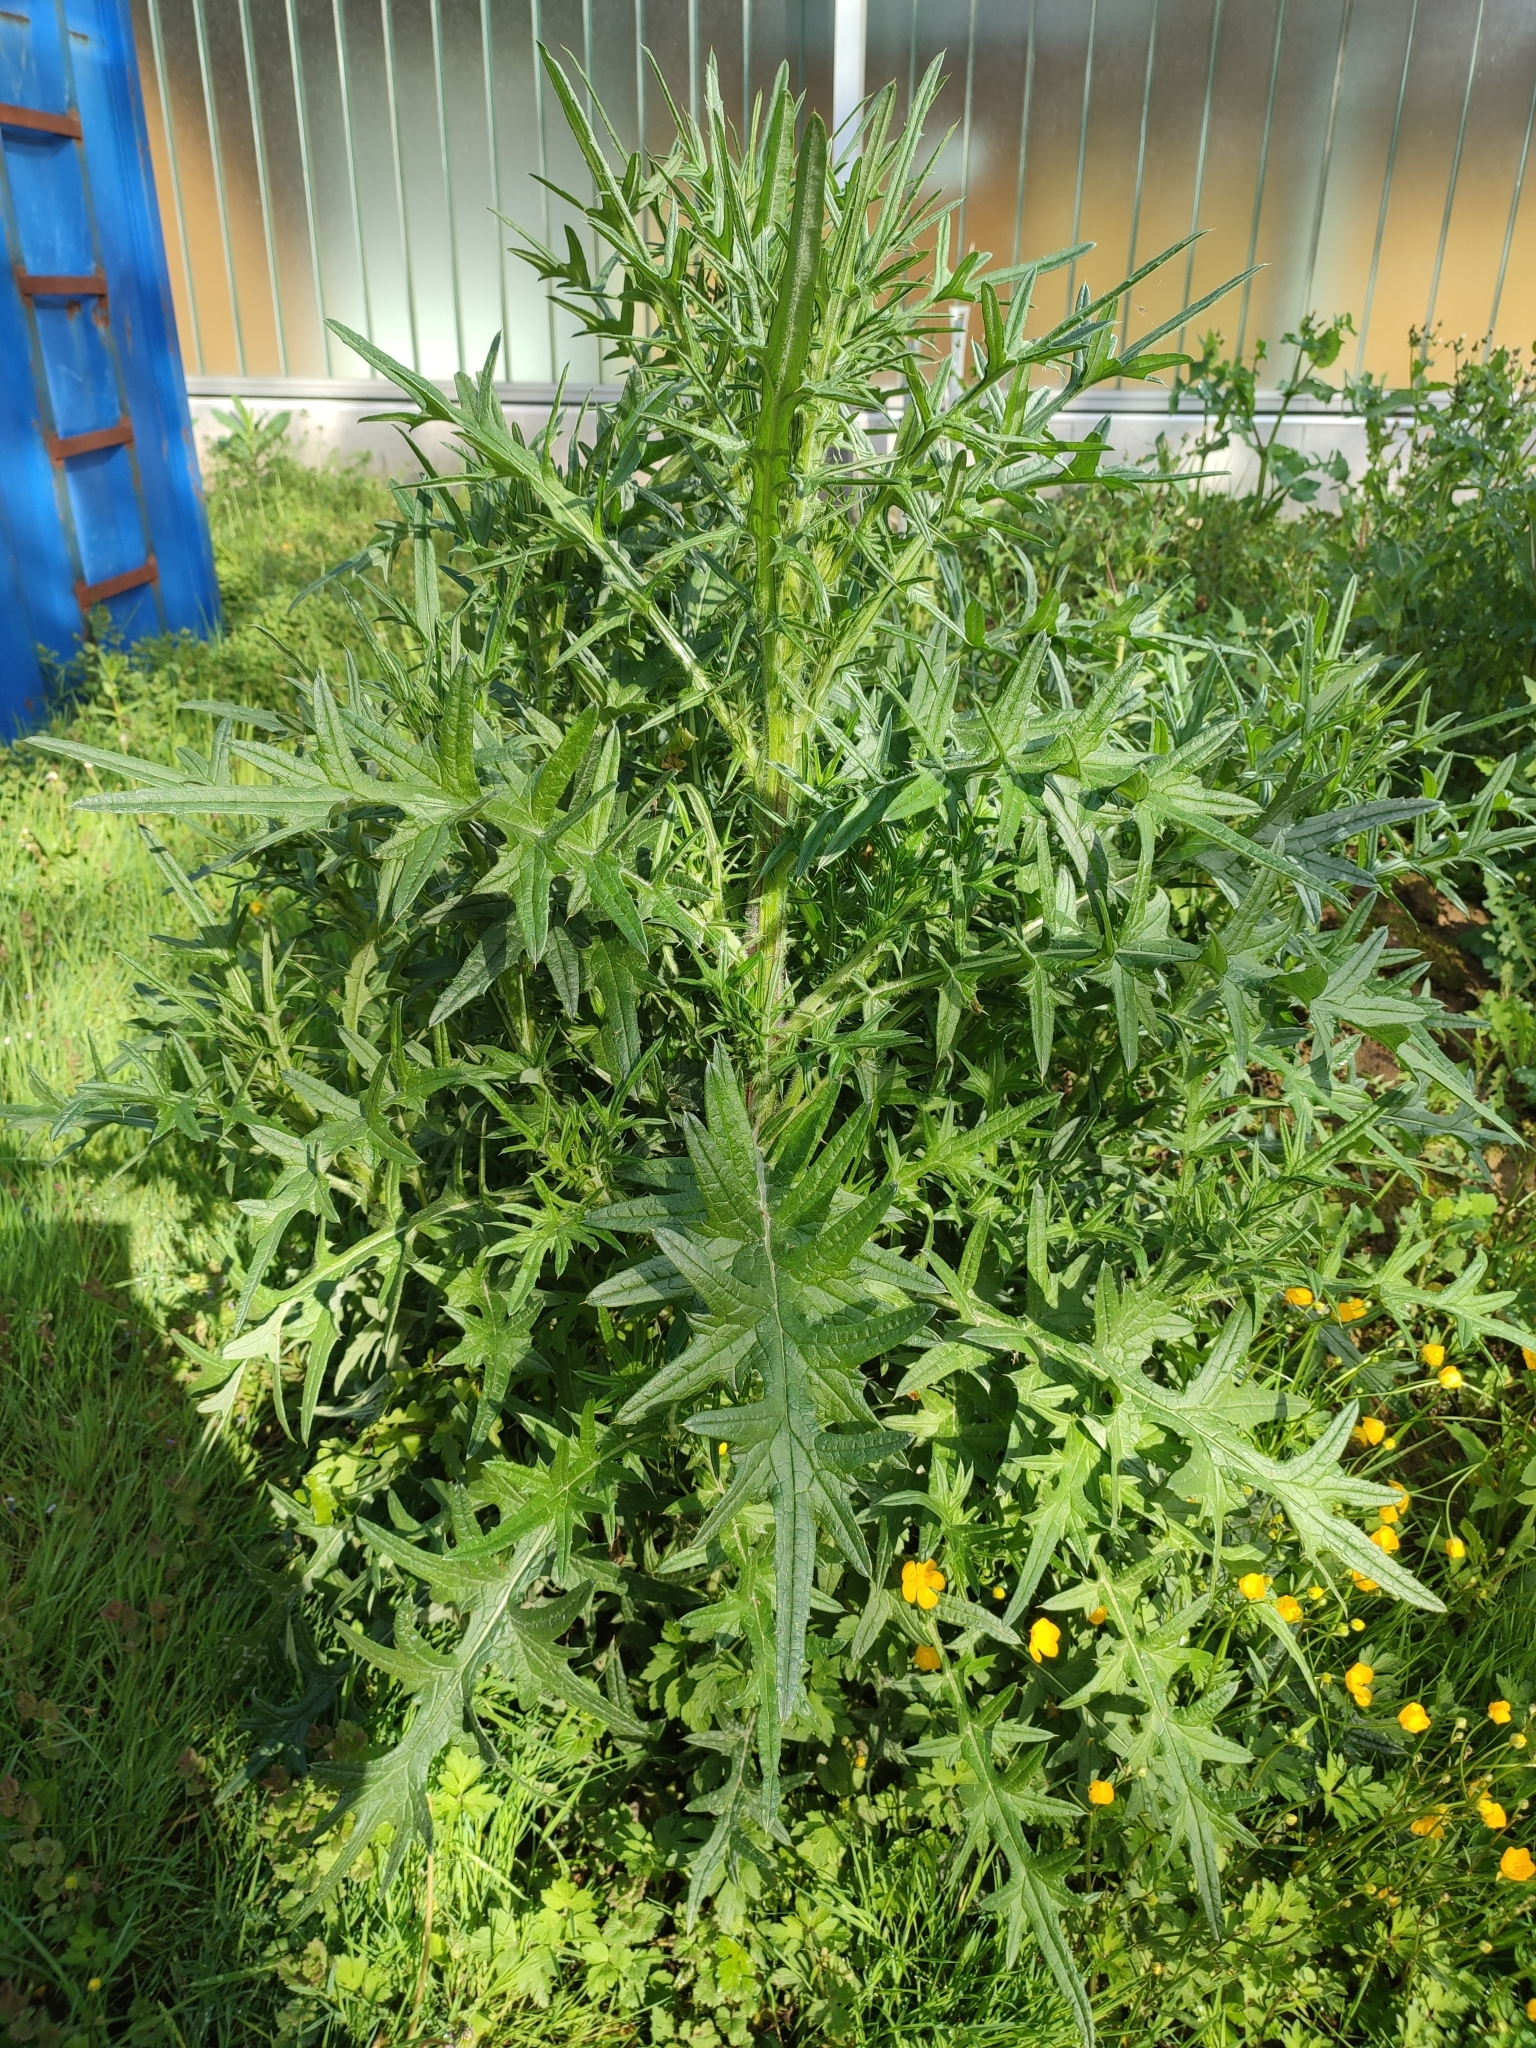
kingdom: Plantae
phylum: Tracheophyta
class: Magnoliopsida
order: Asterales
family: Asteraceae
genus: Cirsium
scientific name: Cirsium vulgare
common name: Bull thistle
